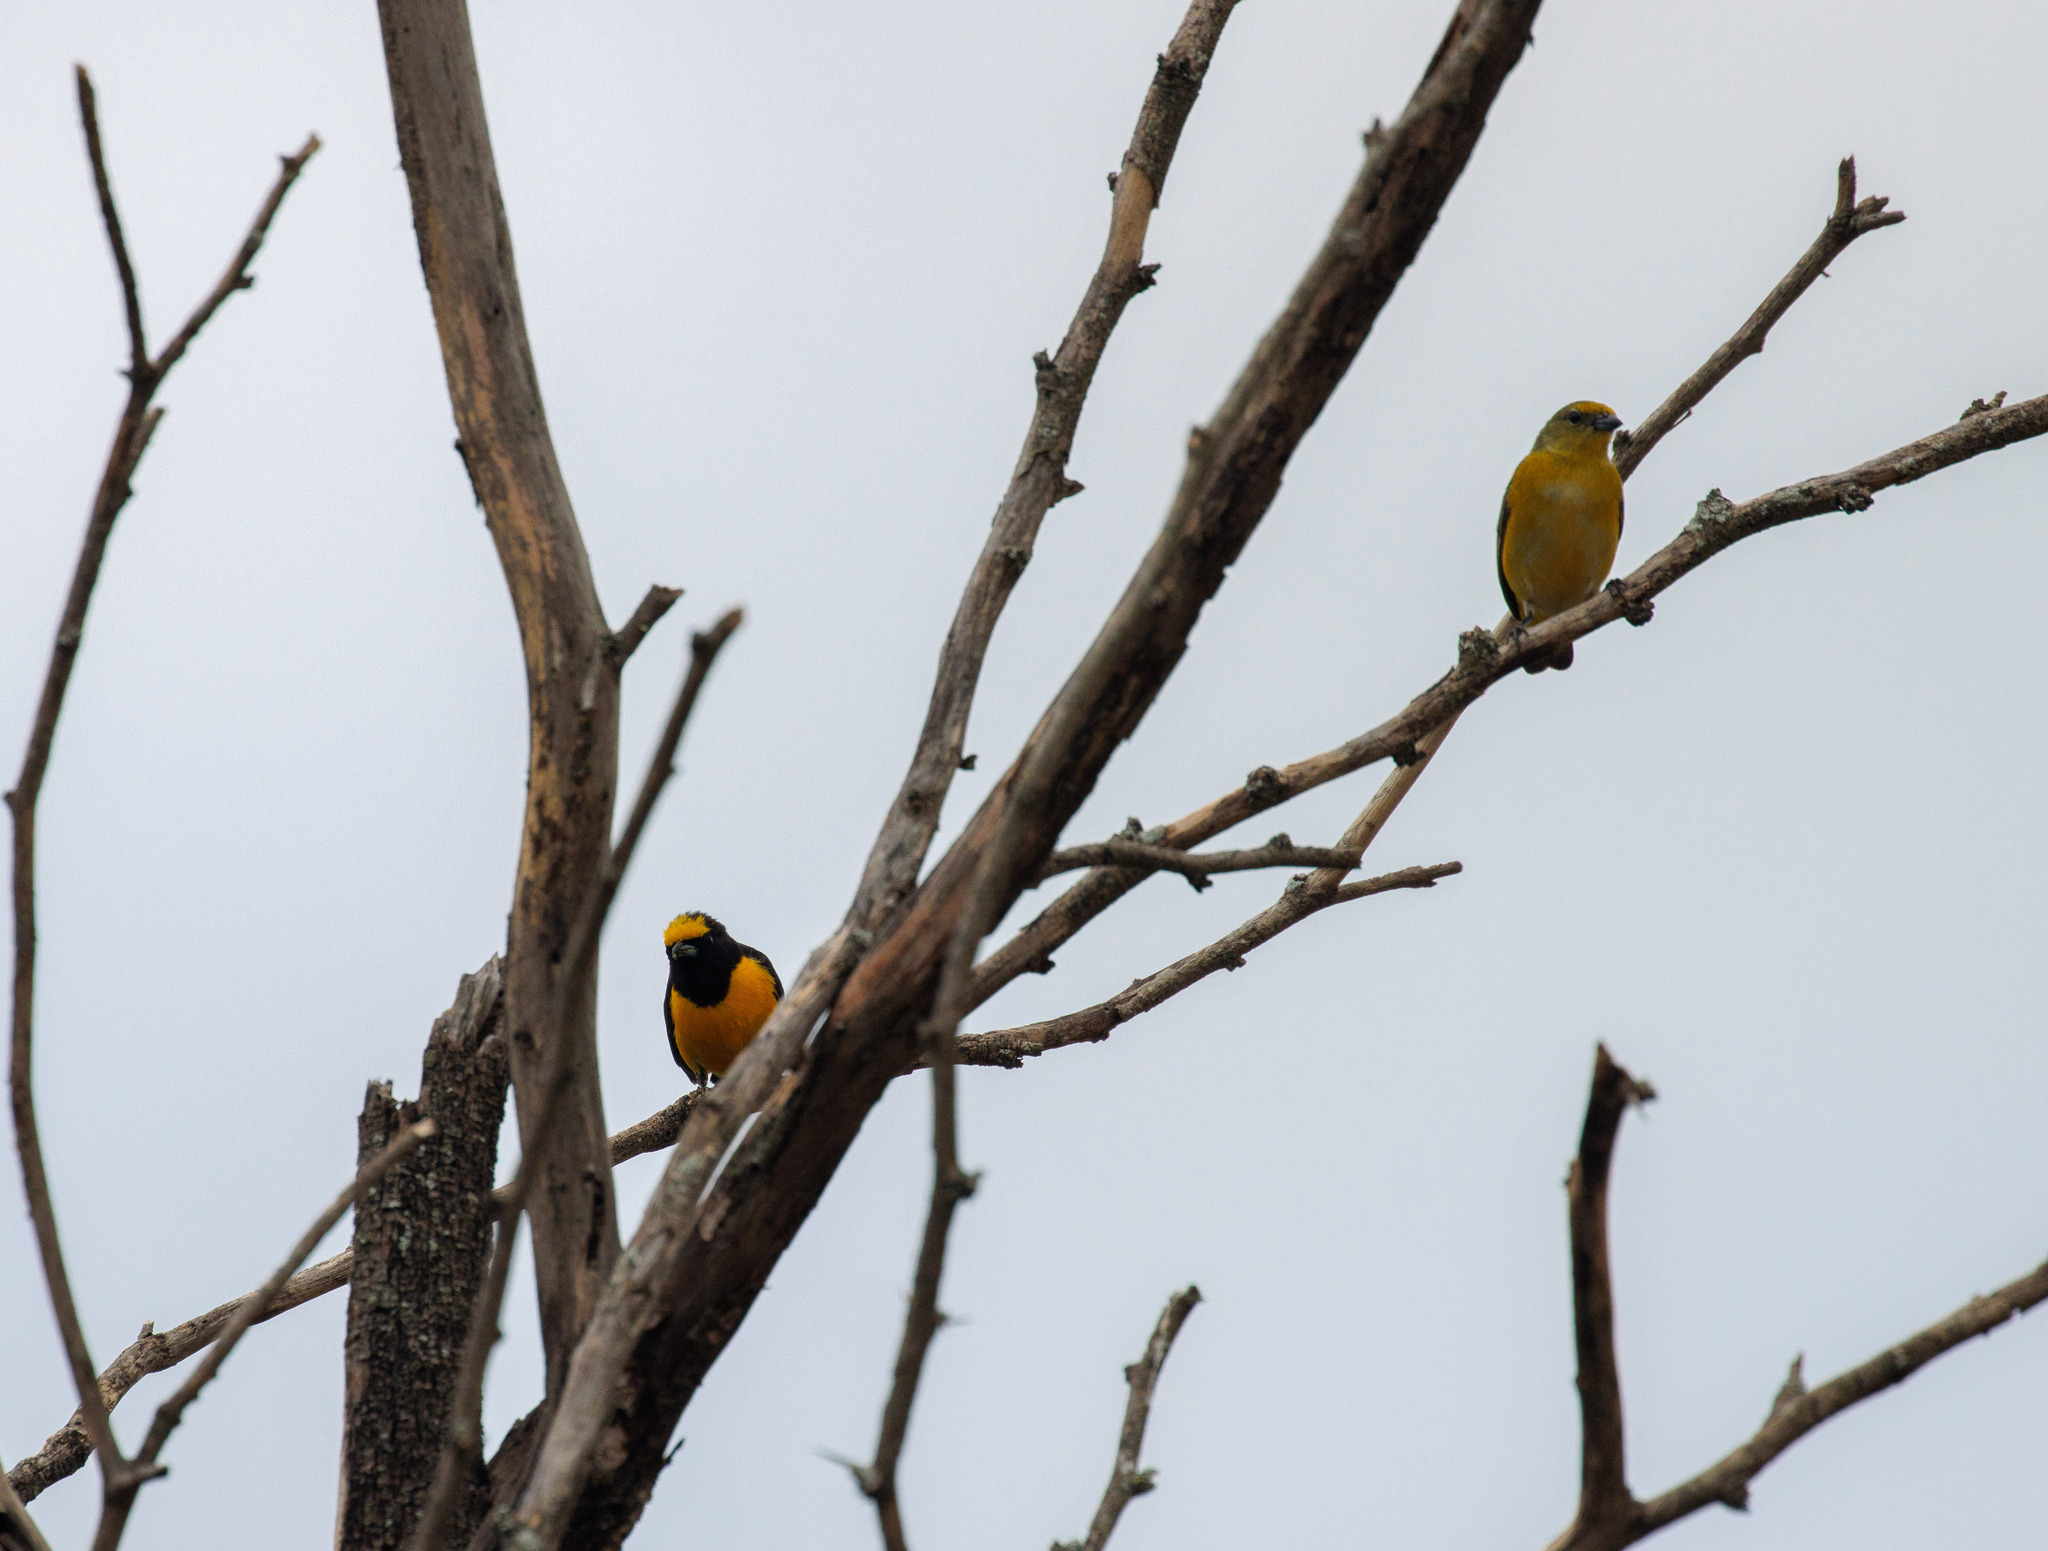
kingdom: Animalia
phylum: Chordata
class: Aves
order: Passeriformes
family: Fringillidae
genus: Euphonia
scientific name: Euphonia chlorotica
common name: Purple-throated euphonia
